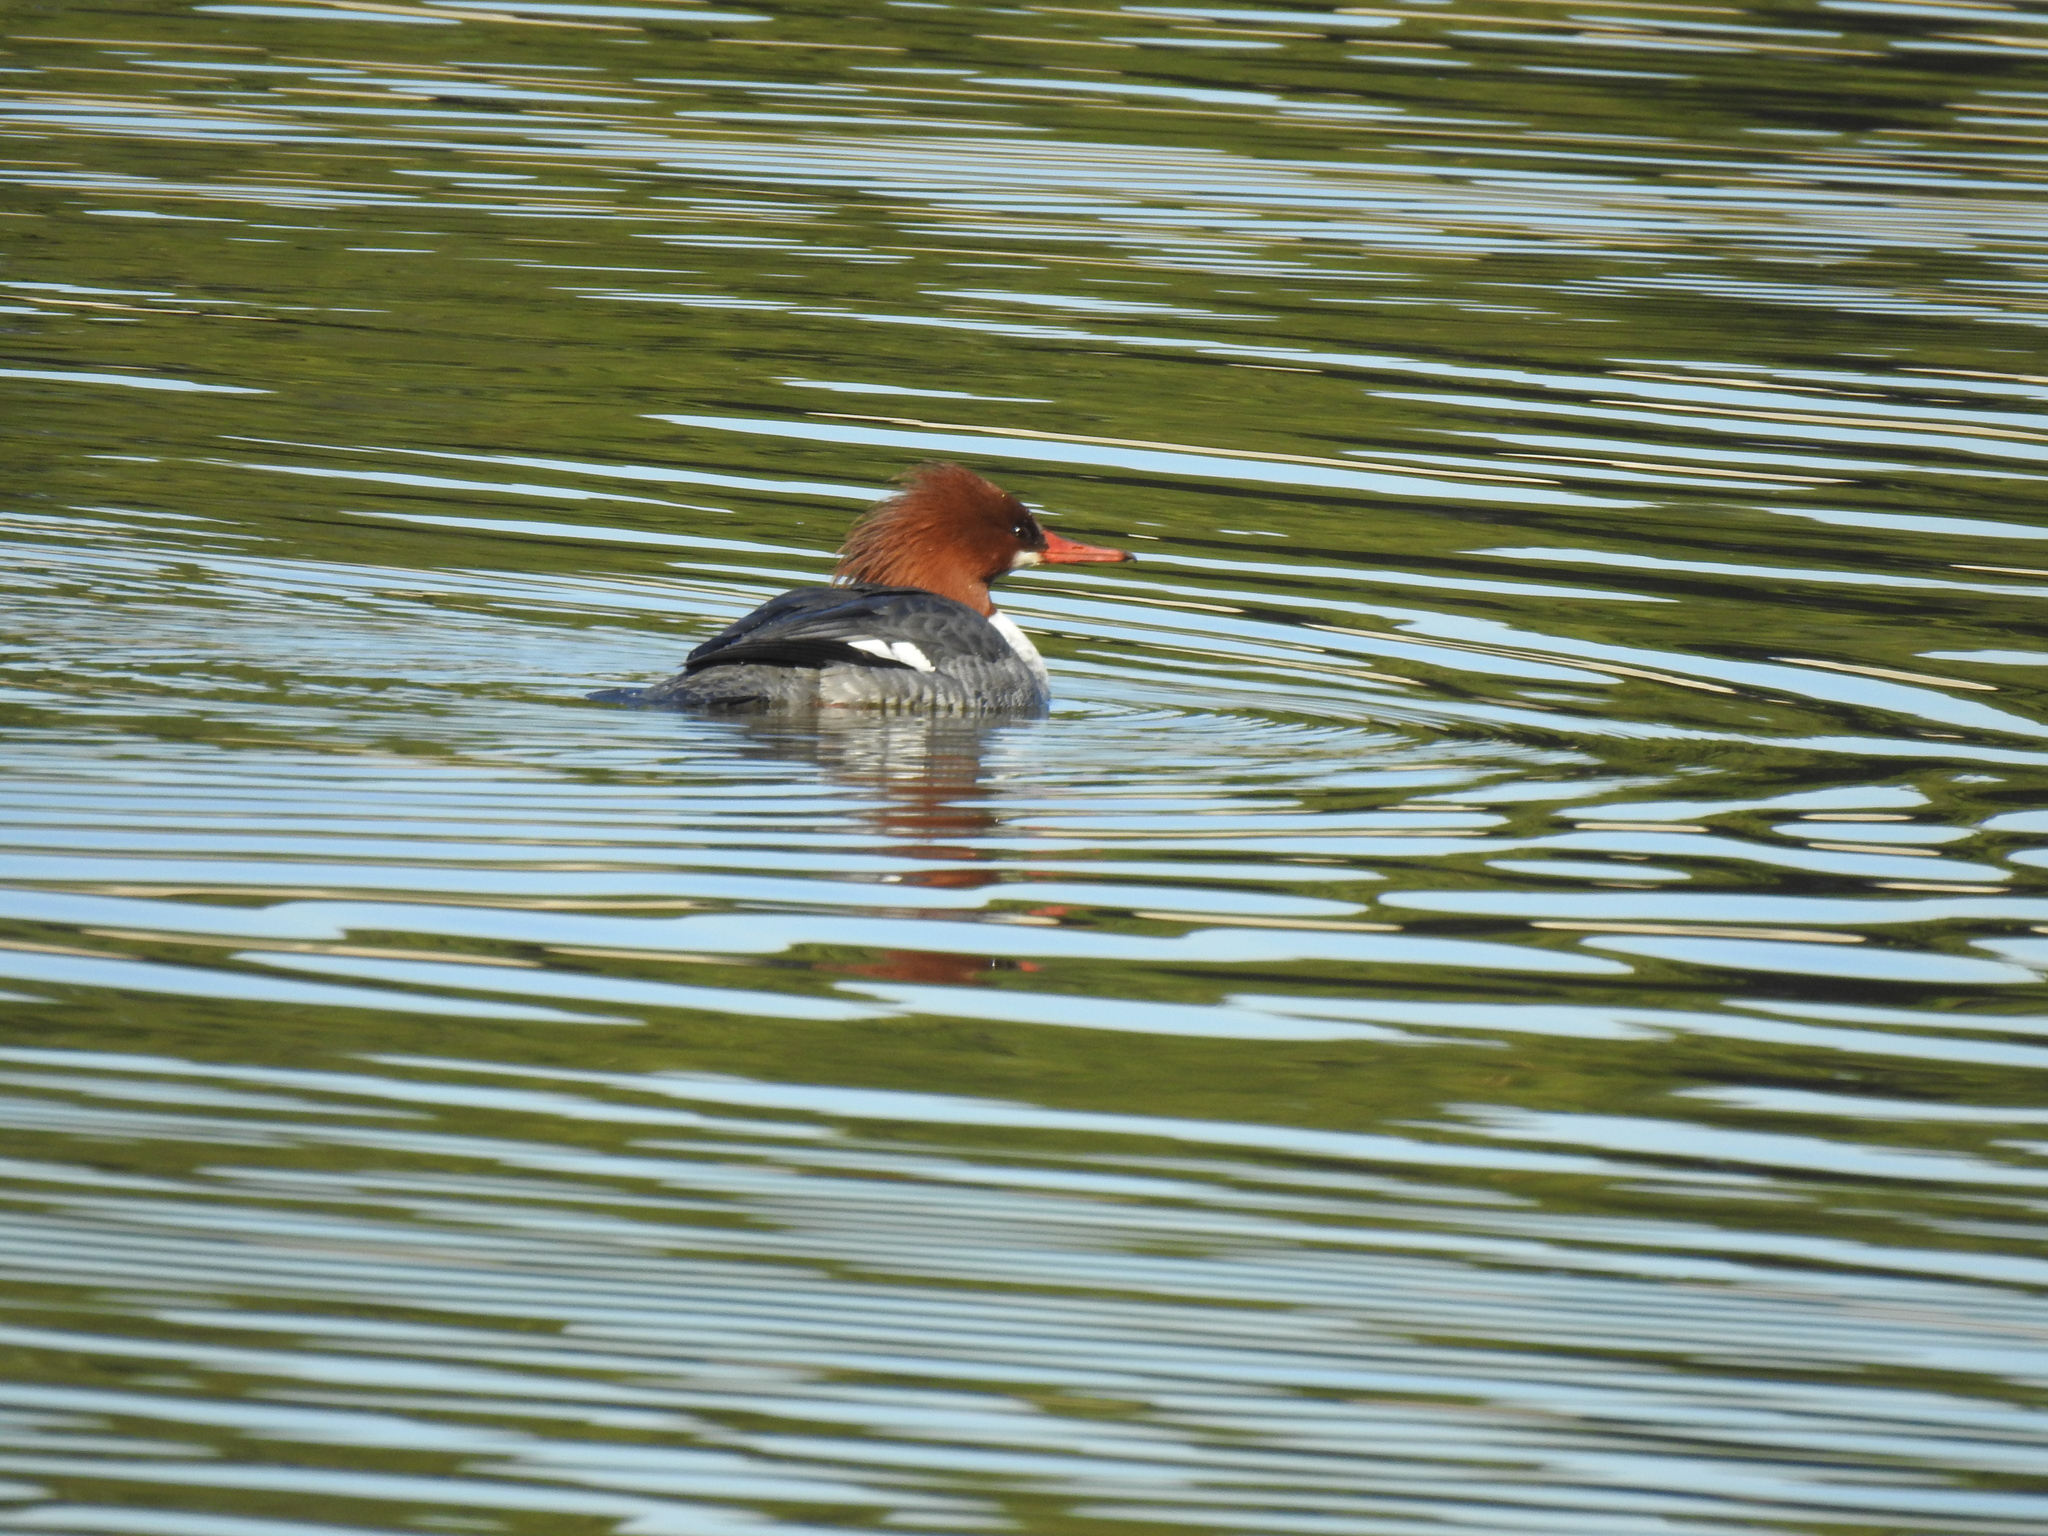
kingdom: Animalia
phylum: Chordata
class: Aves
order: Anseriformes
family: Anatidae
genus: Mergus
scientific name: Mergus merganser
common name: Common merganser
